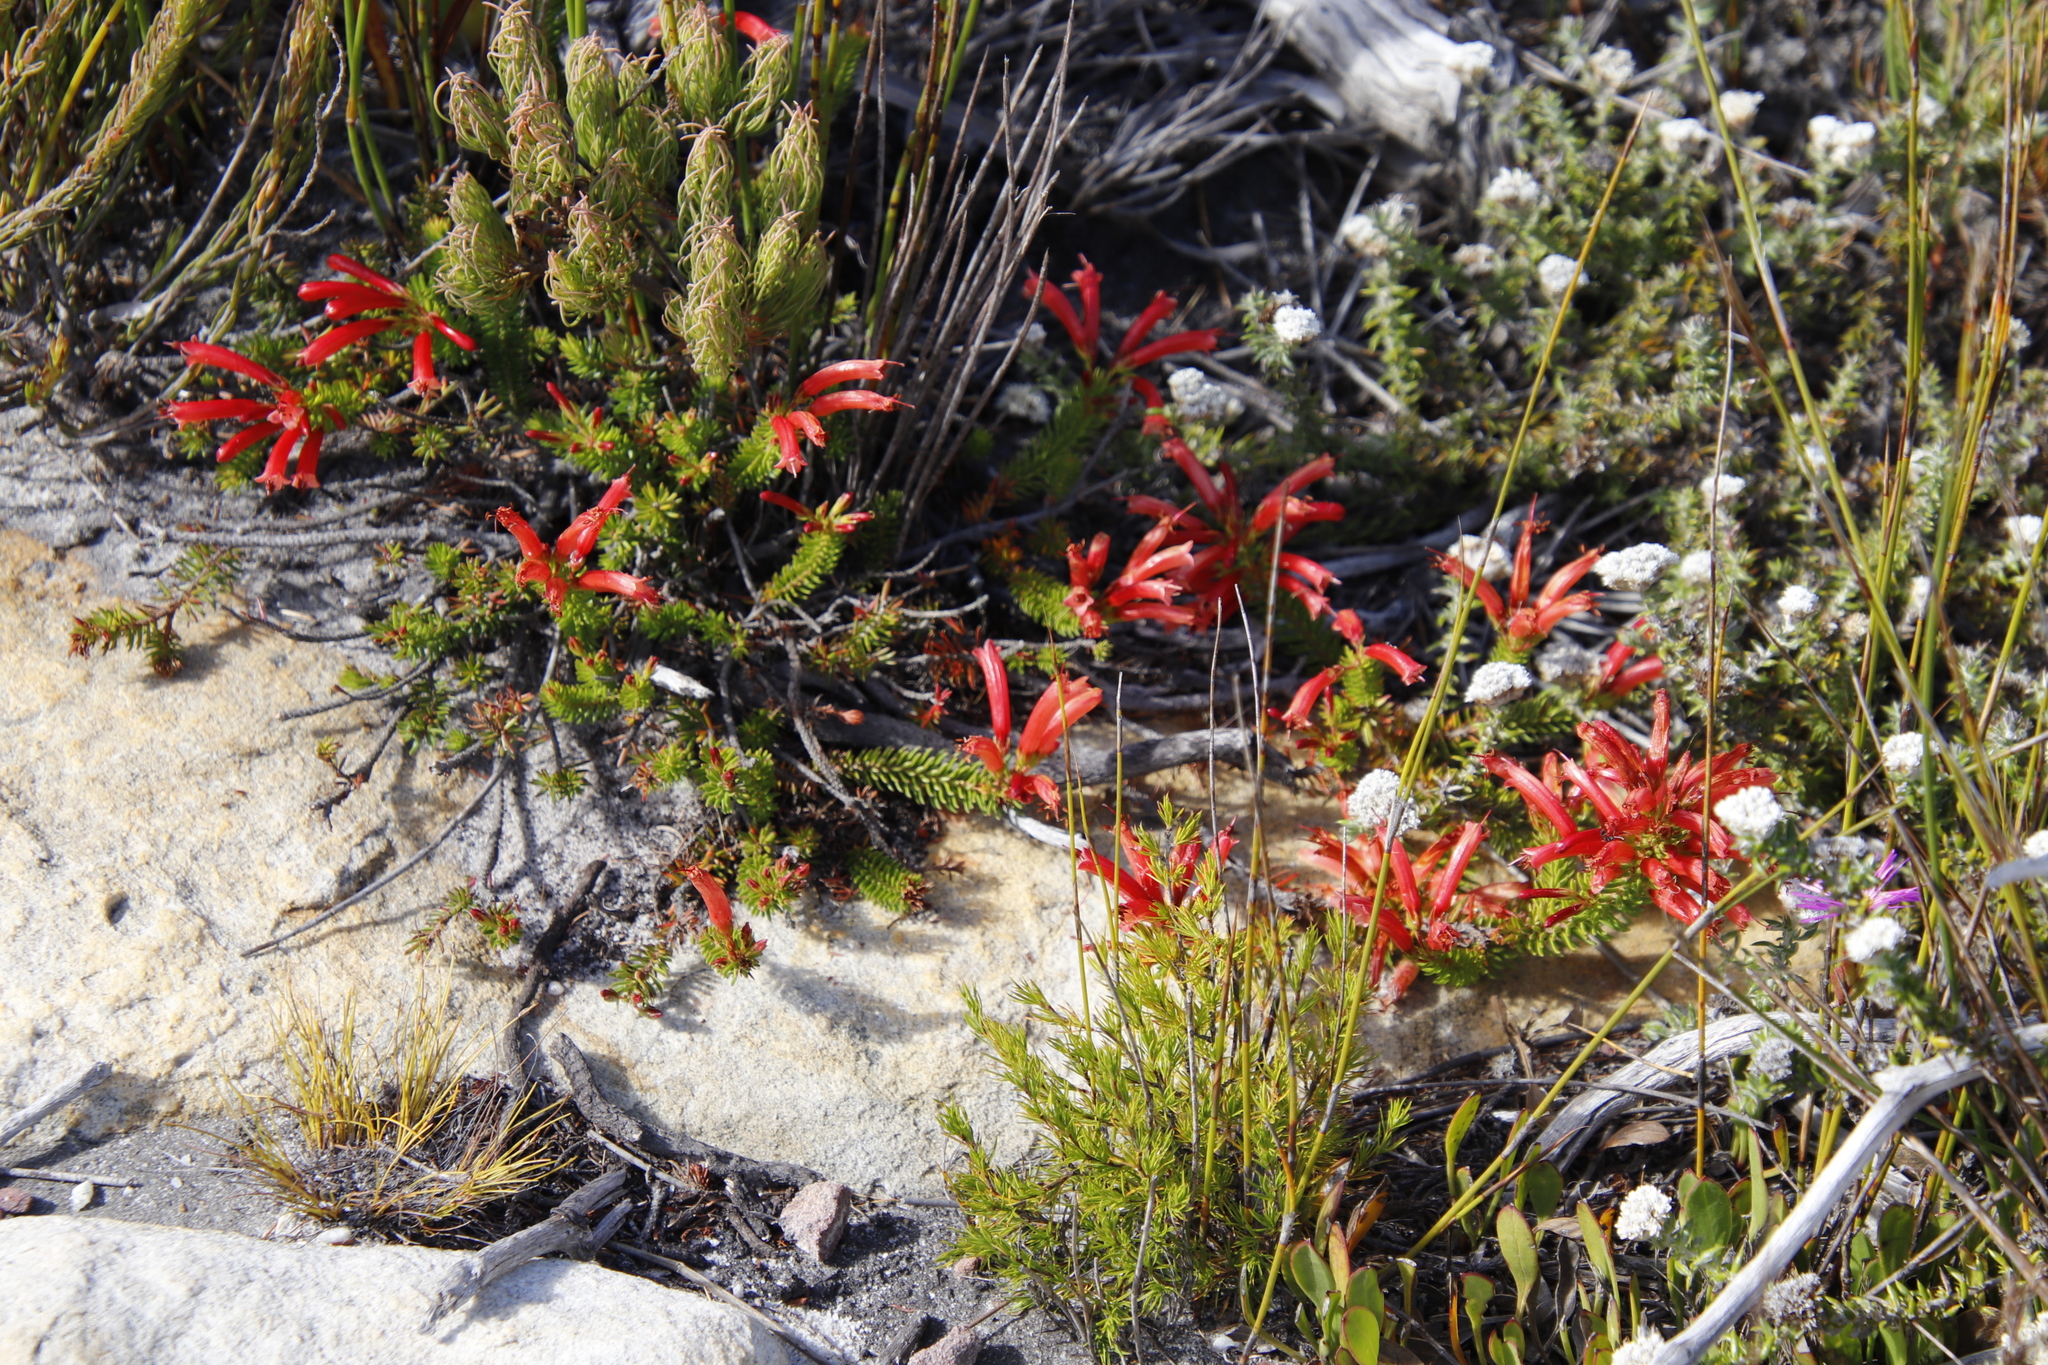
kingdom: Plantae
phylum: Tracheophyta
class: Magnoliopsida
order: Ericales
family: Ericaceae
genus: Erica
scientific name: Erica nevillei
